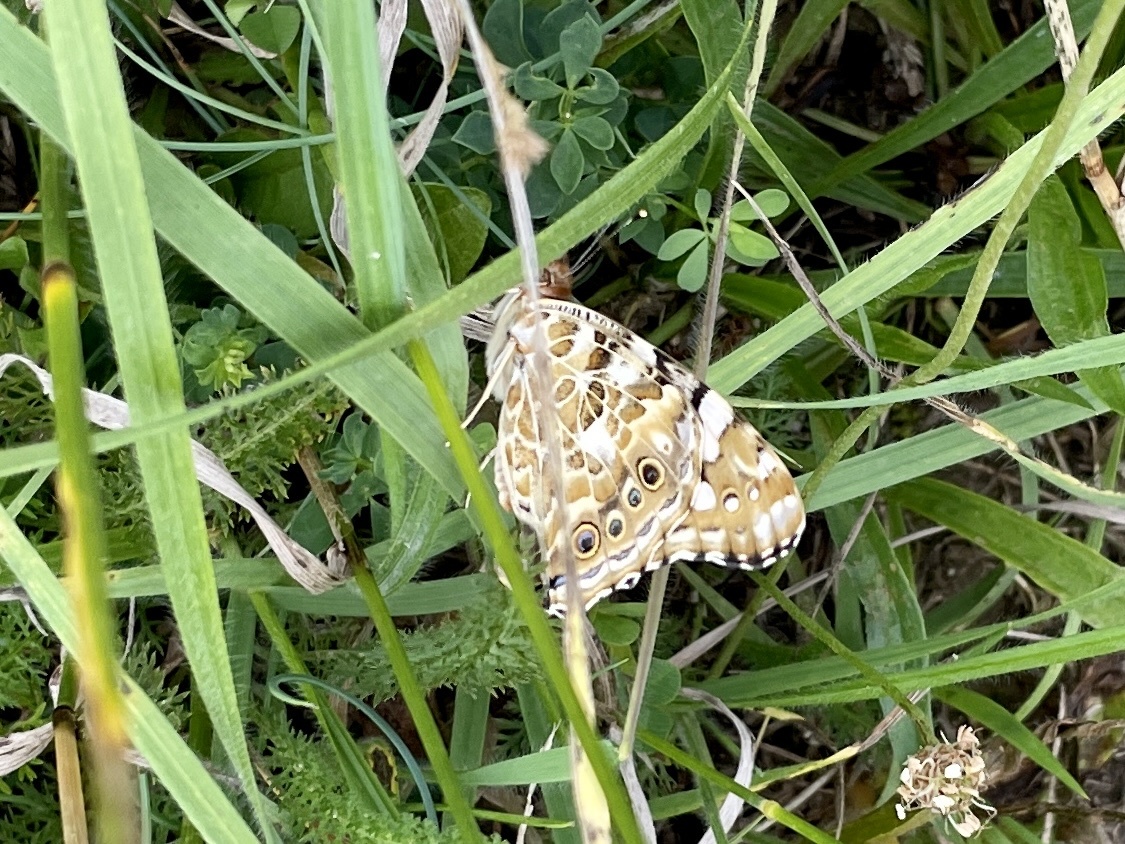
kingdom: Animalia
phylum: Arthropoda
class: Insecta
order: Lepidoptera
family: Nymphalidae
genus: Vanessa
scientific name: Vanessa cardui
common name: Painted lady
